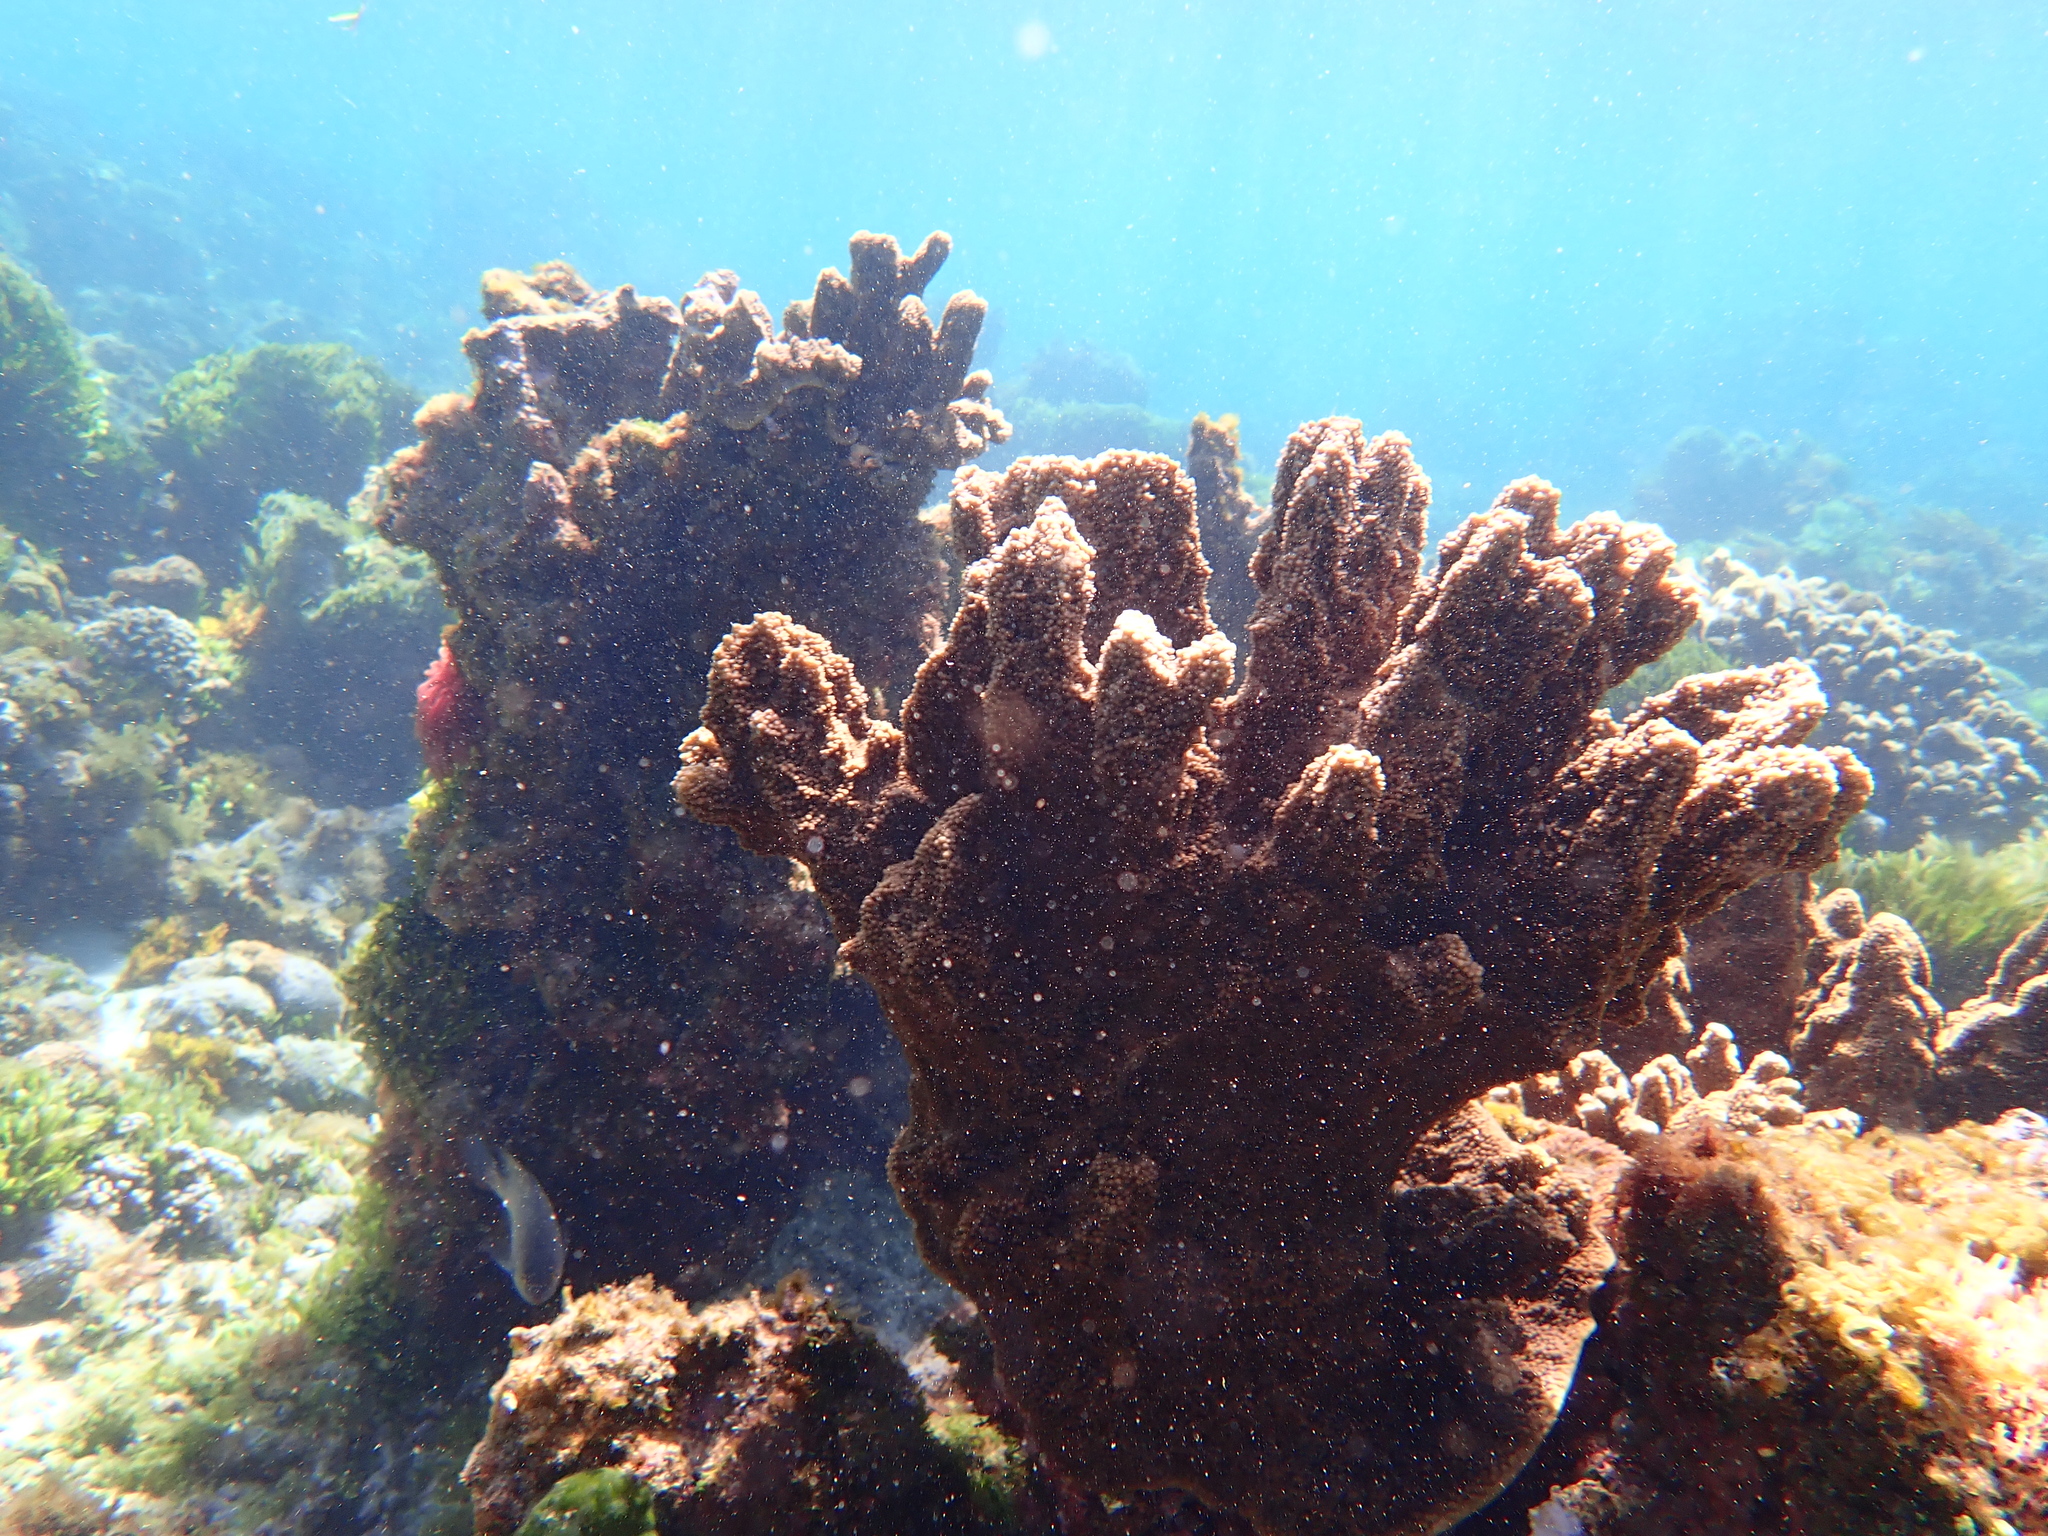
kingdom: Animalia
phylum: Cnidaria
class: Anthozoa
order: Scleractinia
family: Acroporidae
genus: Isopora
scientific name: Isopora elizabethensis
